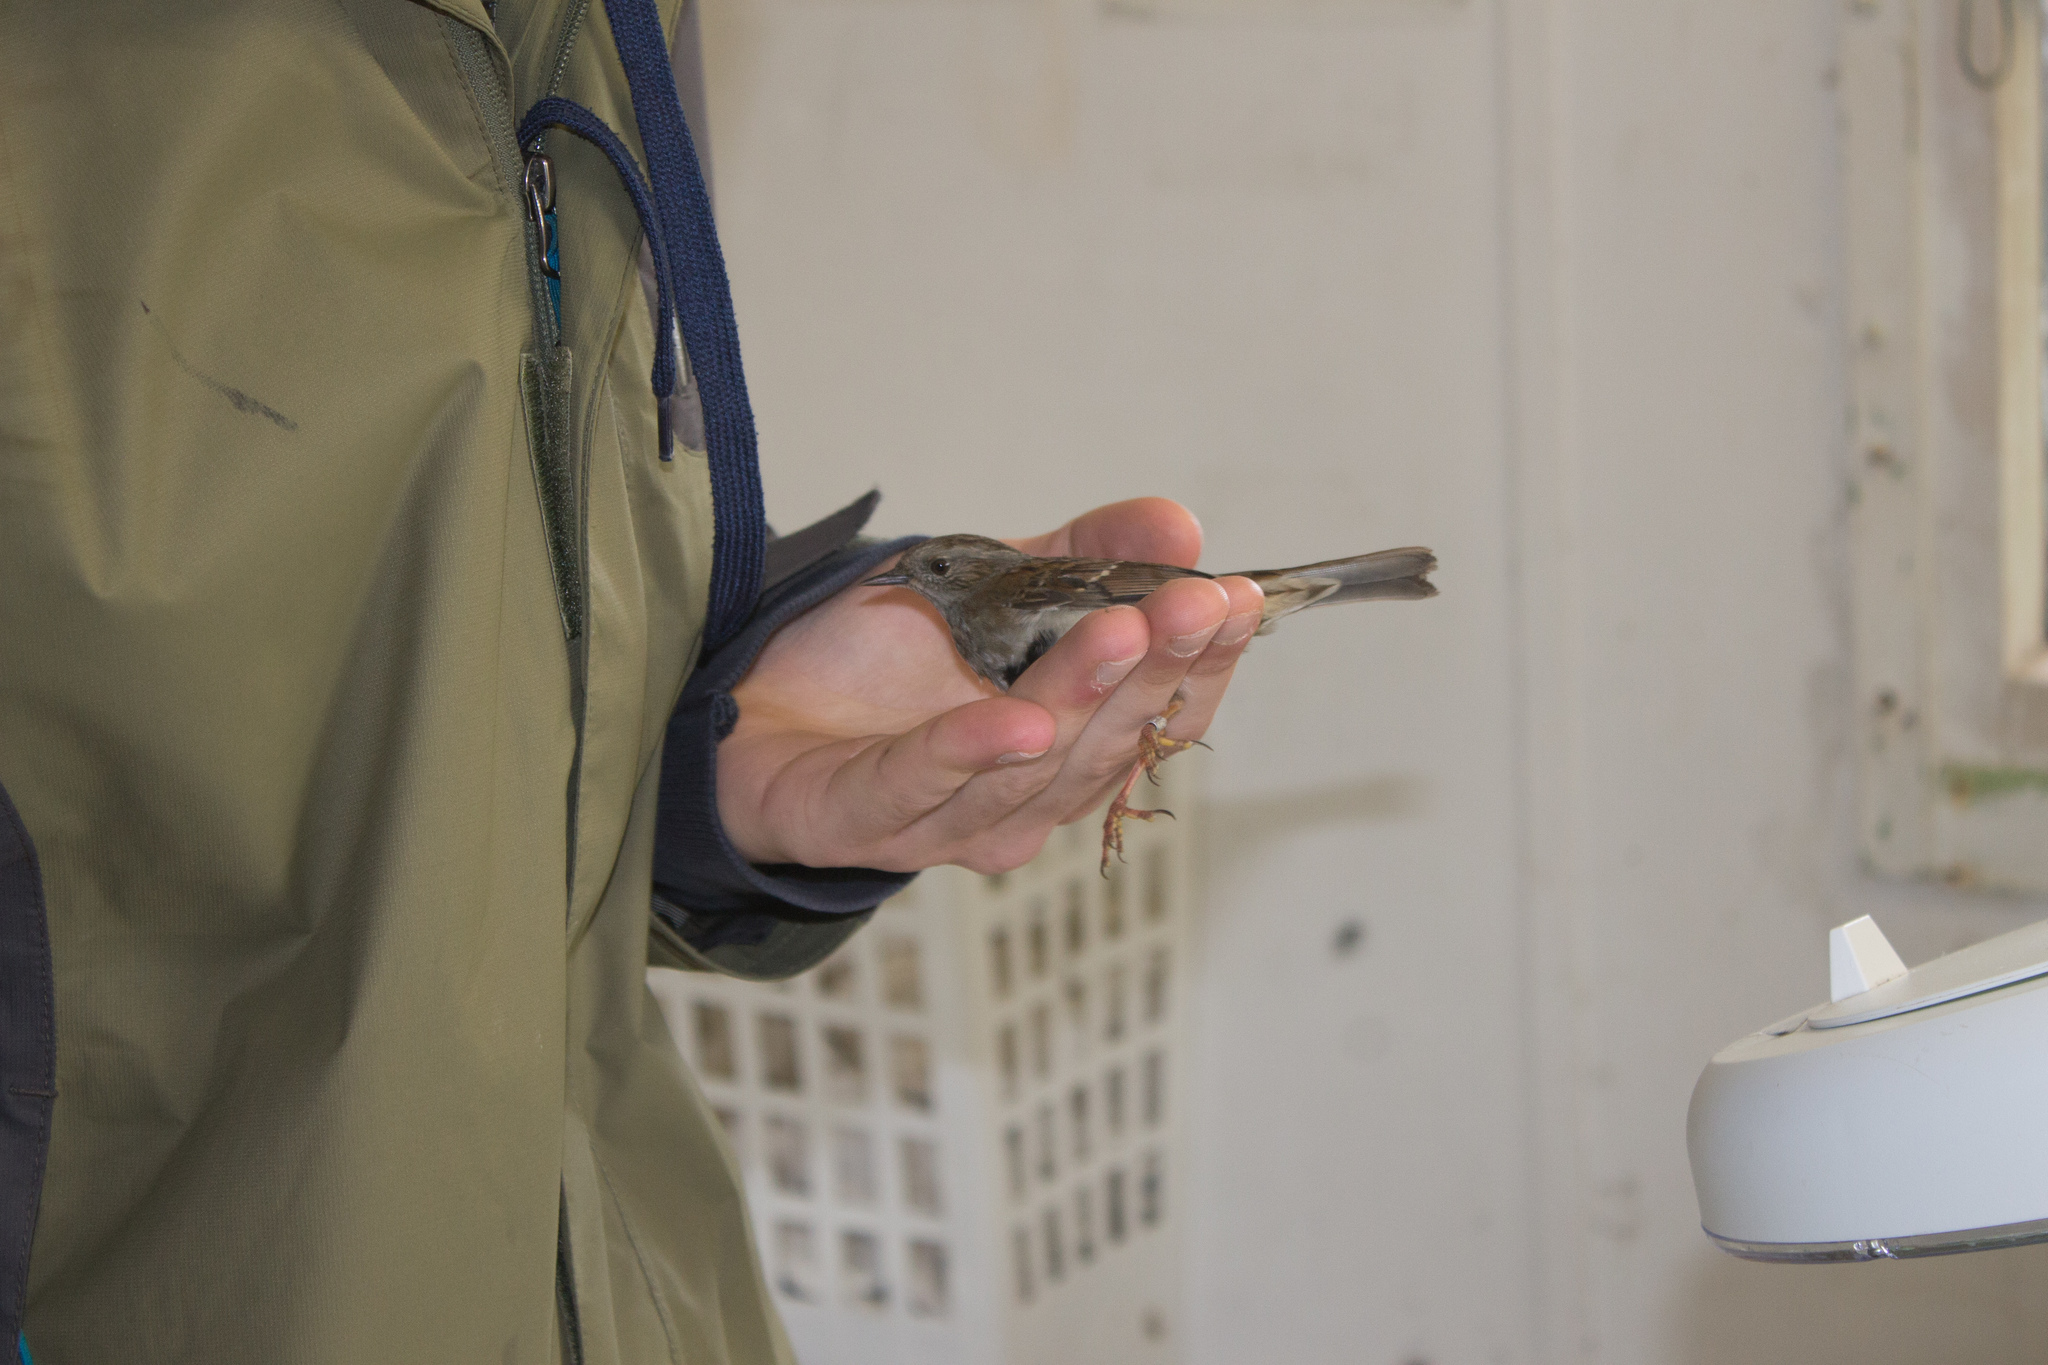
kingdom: Animalia
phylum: Chordata
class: Aves
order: Passeriformes
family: Prunellidae
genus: Prunella
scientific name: Prunella modularis
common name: Dunnock
